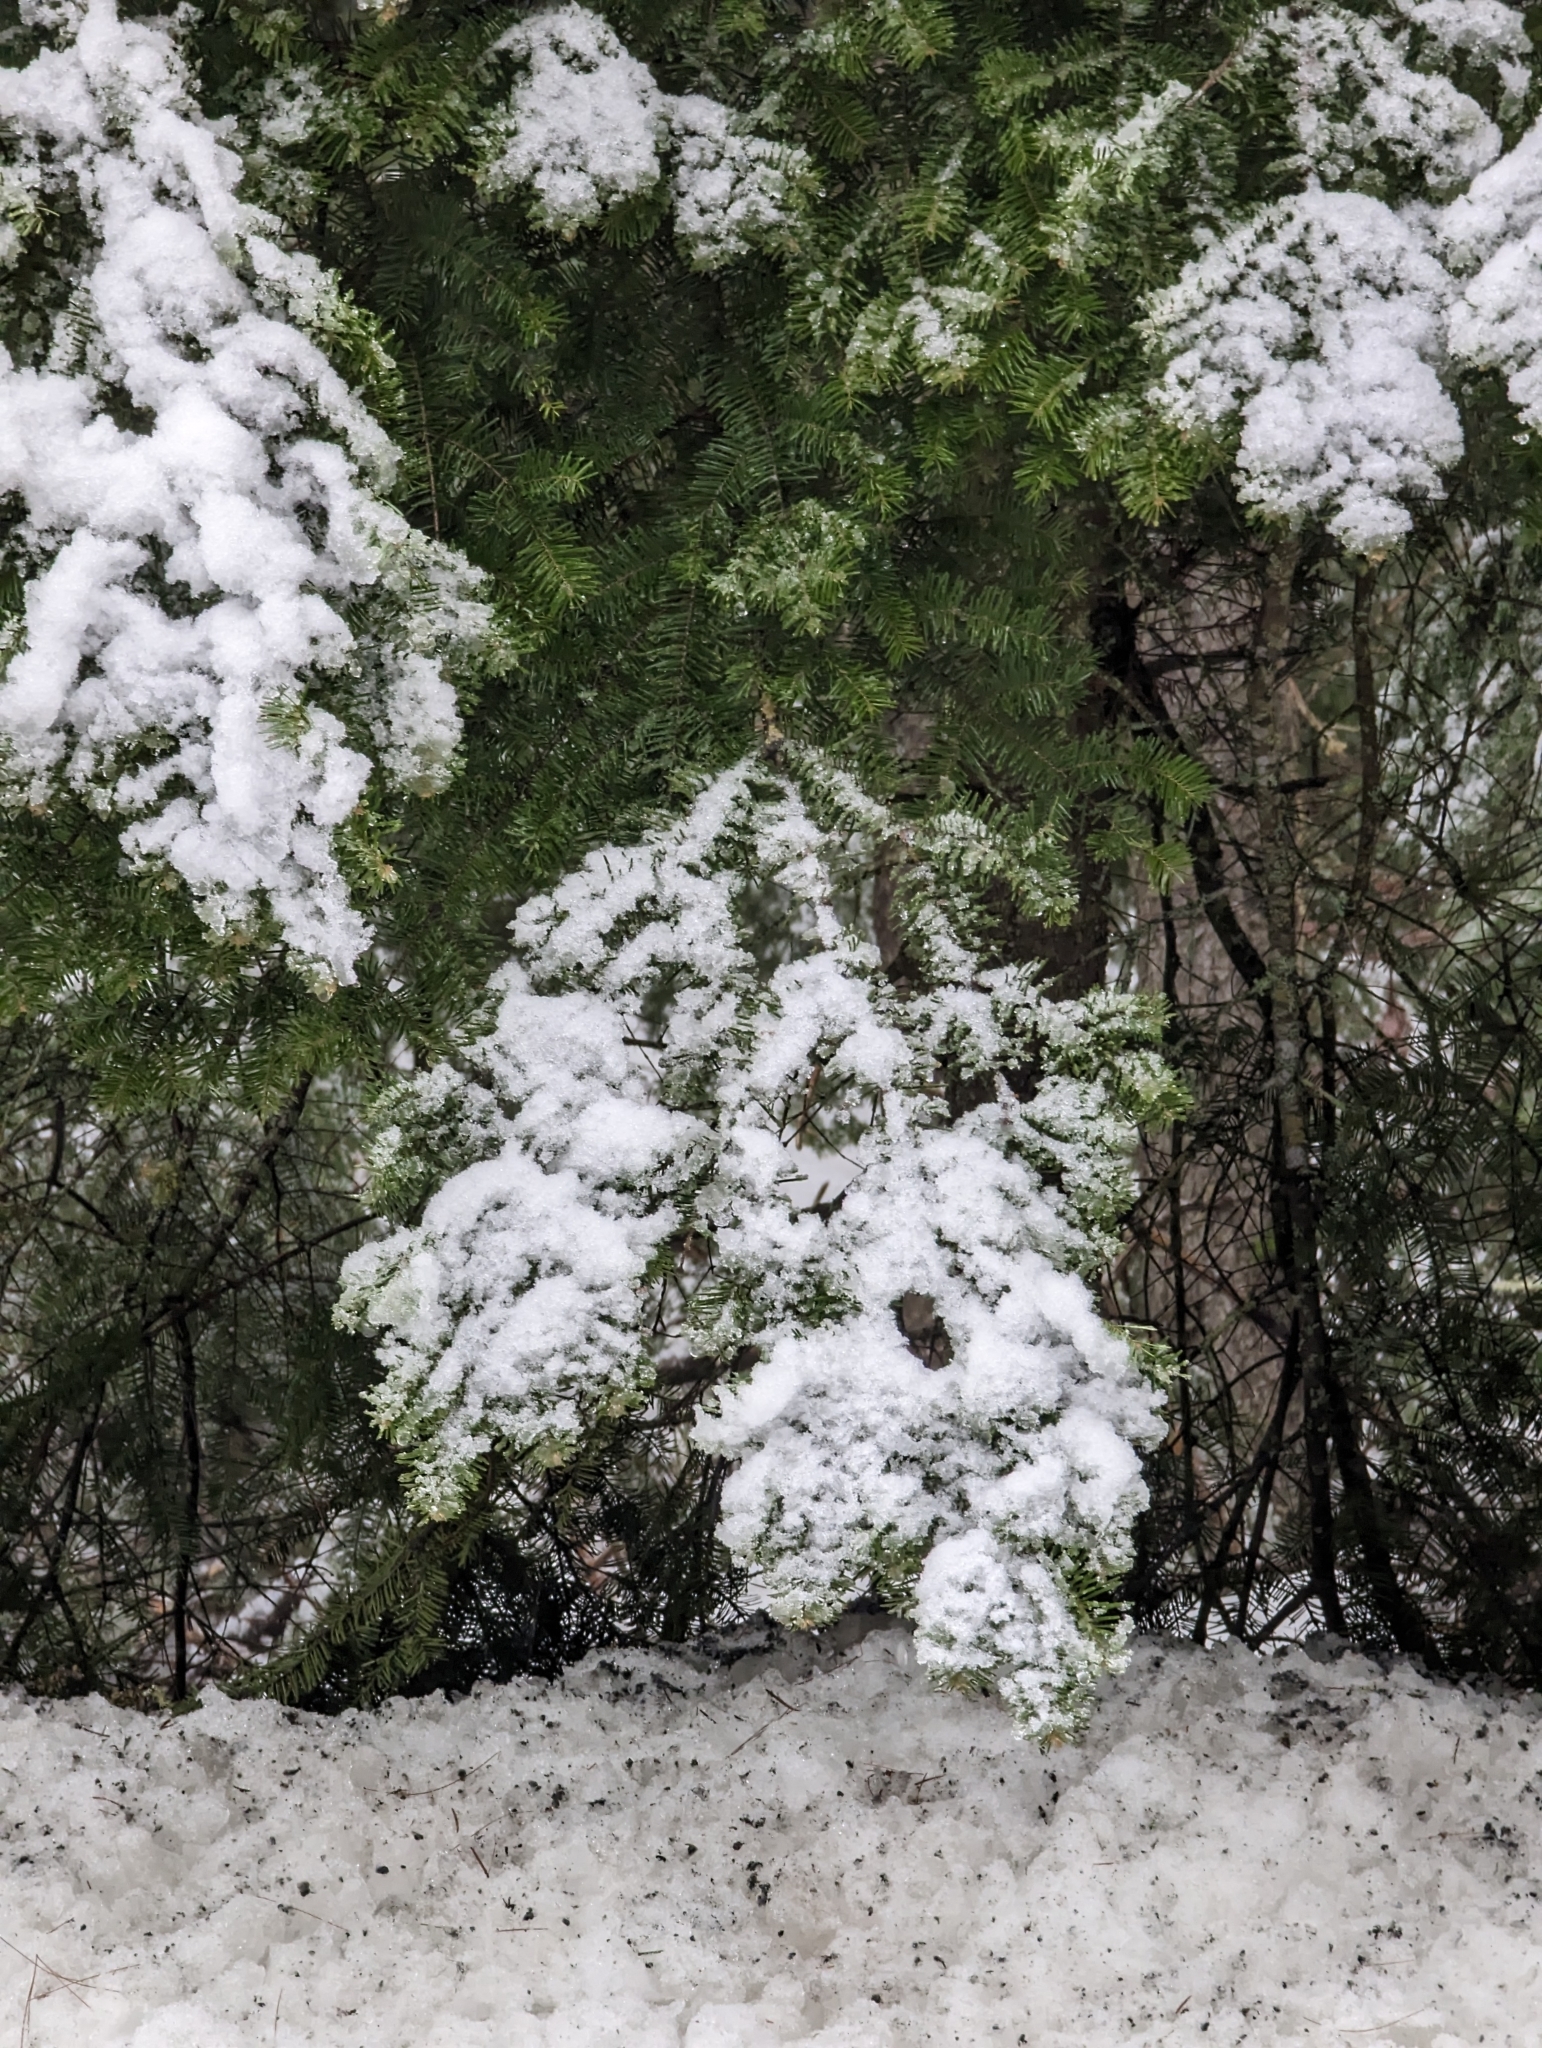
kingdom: Plantae
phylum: Tracheophyta
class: Pinopsida
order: Pinales
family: Pinaceae
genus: Abies
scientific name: Abies balsamea
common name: Balsam fir
